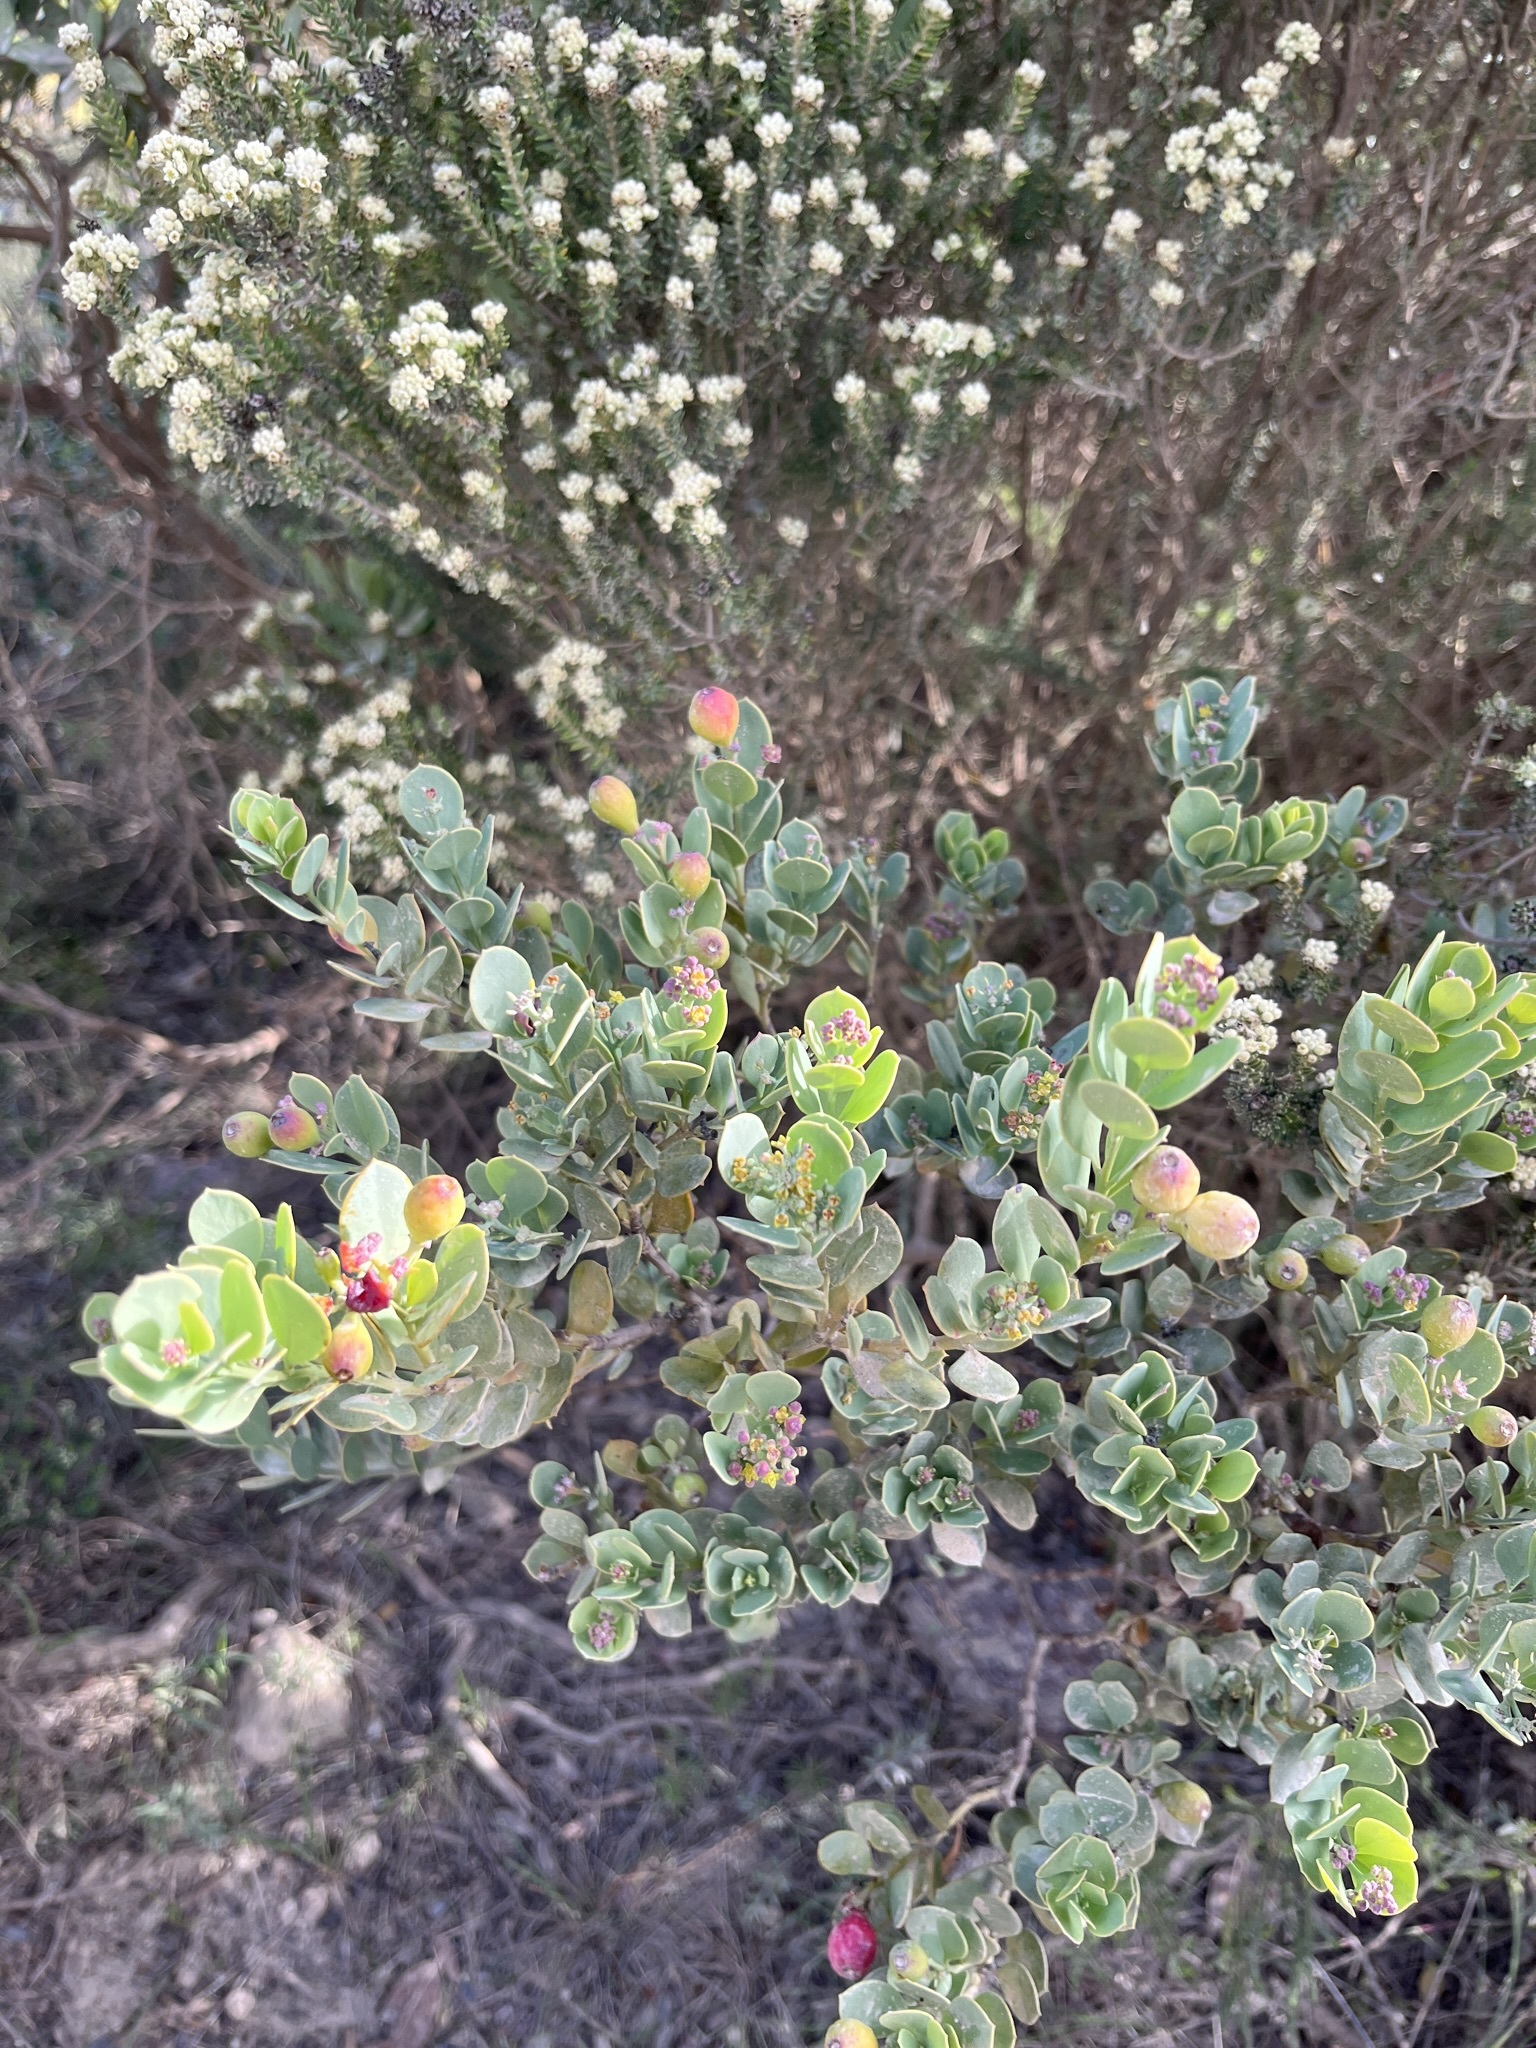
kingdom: Plantae
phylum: Tracheophyta
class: Magnoliopsida
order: Santalales
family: Santalaceae
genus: Osyris
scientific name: Osyris compressa
